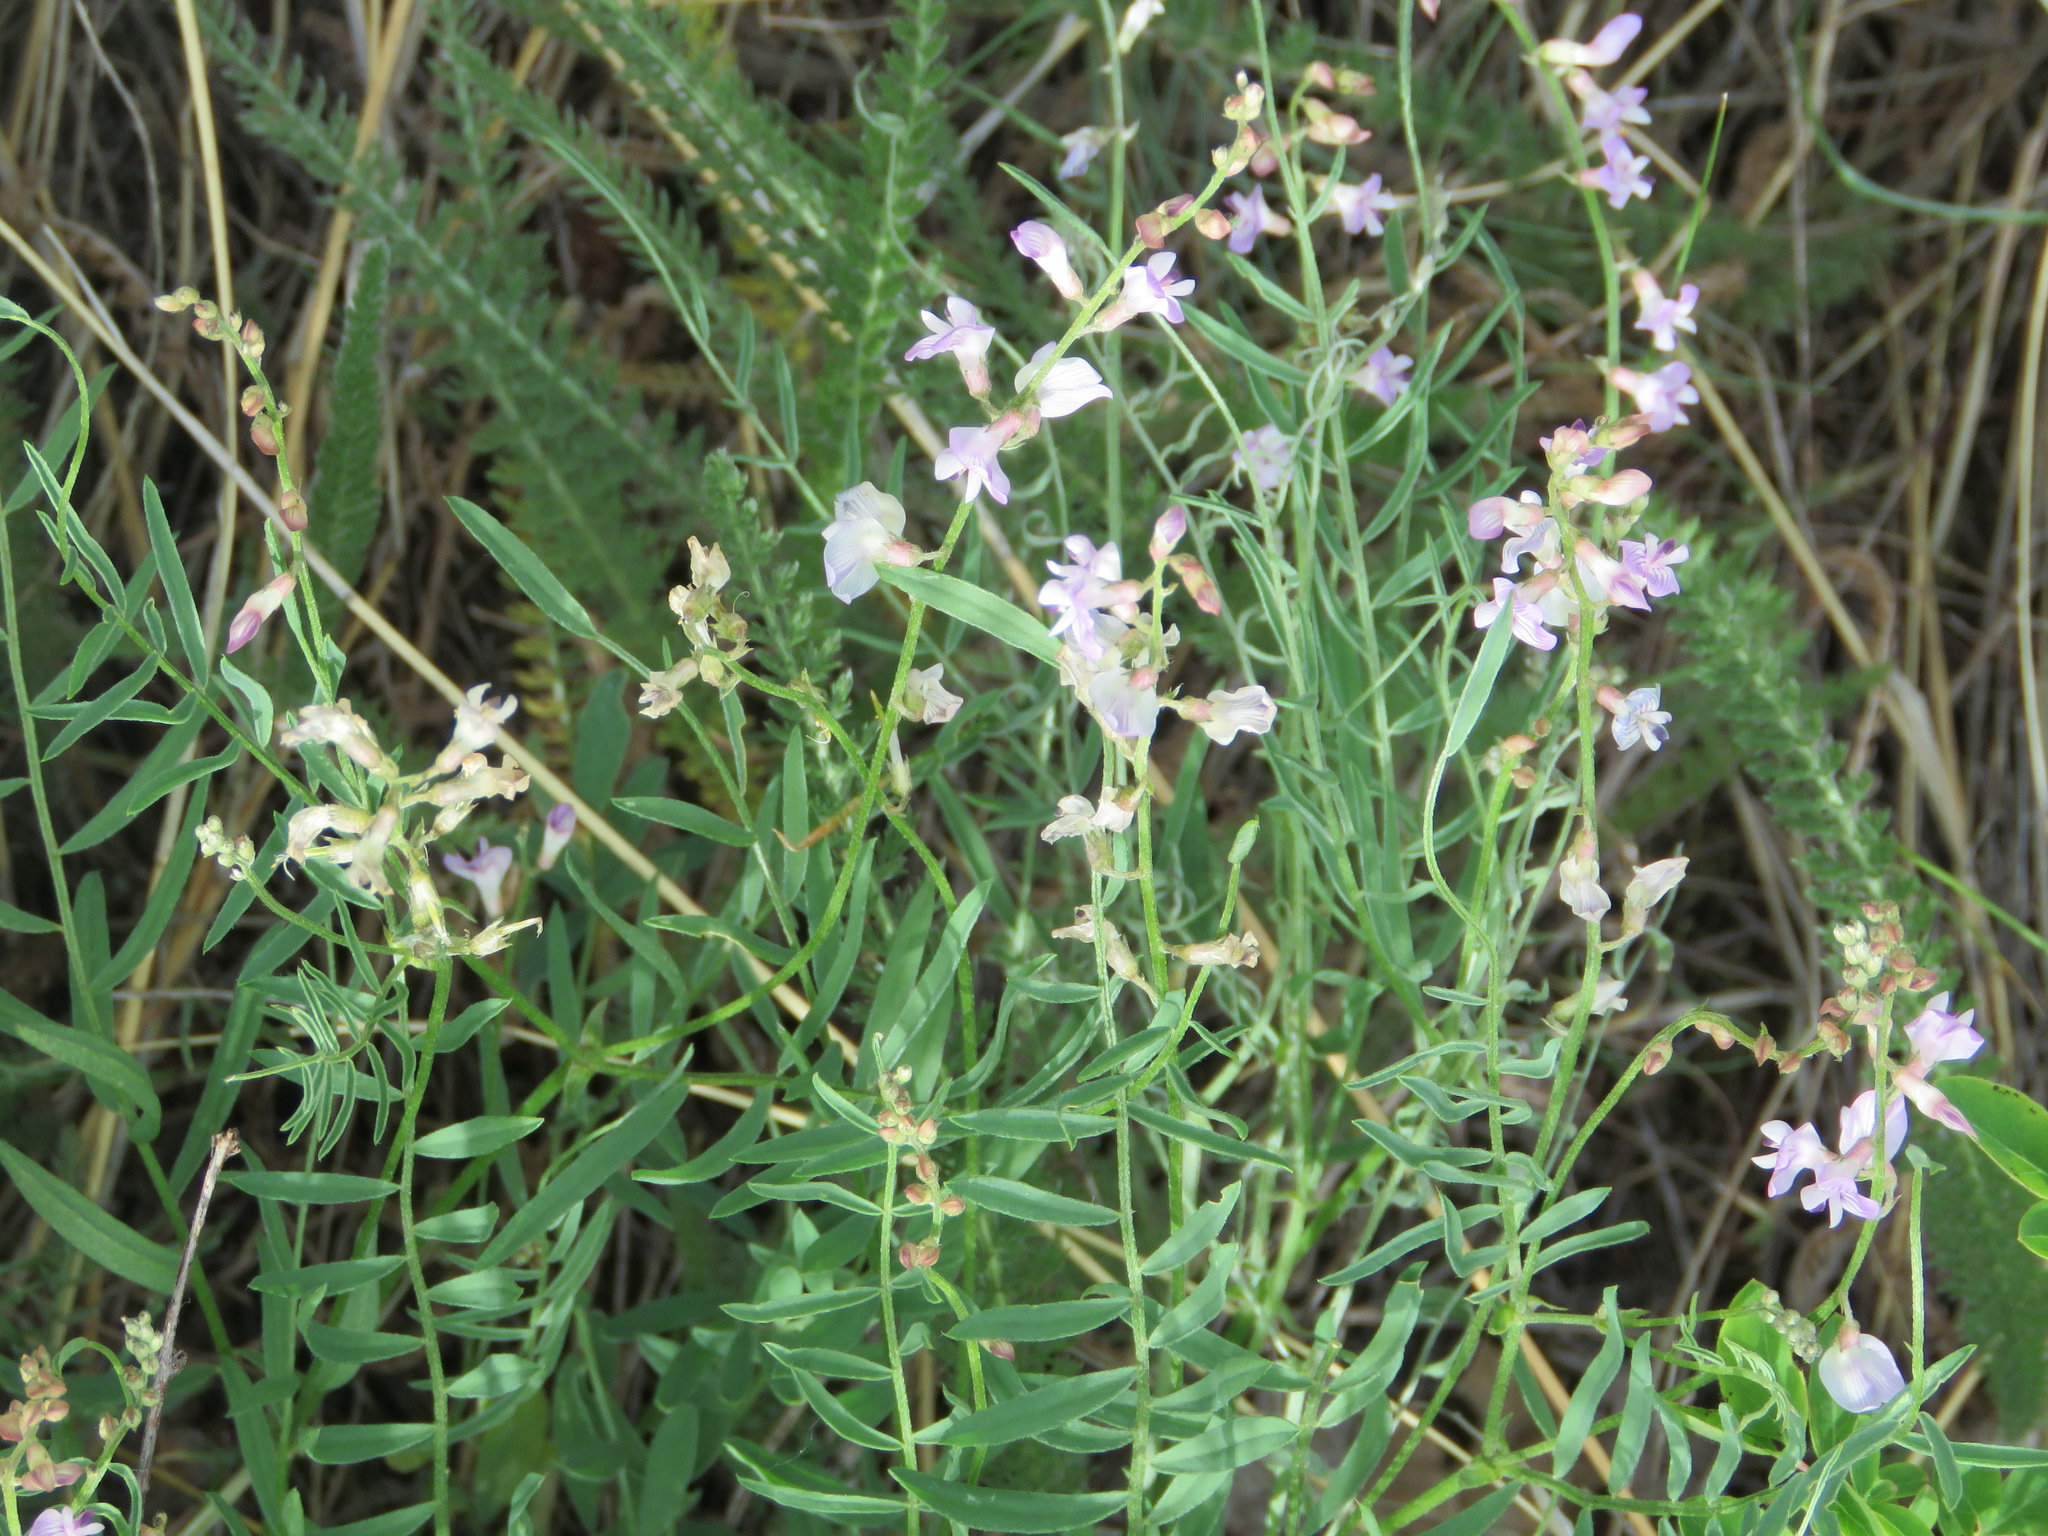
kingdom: Plantae
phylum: Tracheophyta
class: Magnoliopsida
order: Fabales
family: Fabaceae
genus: Astragalus
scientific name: Astragalus miser
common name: Timber milkvetch
